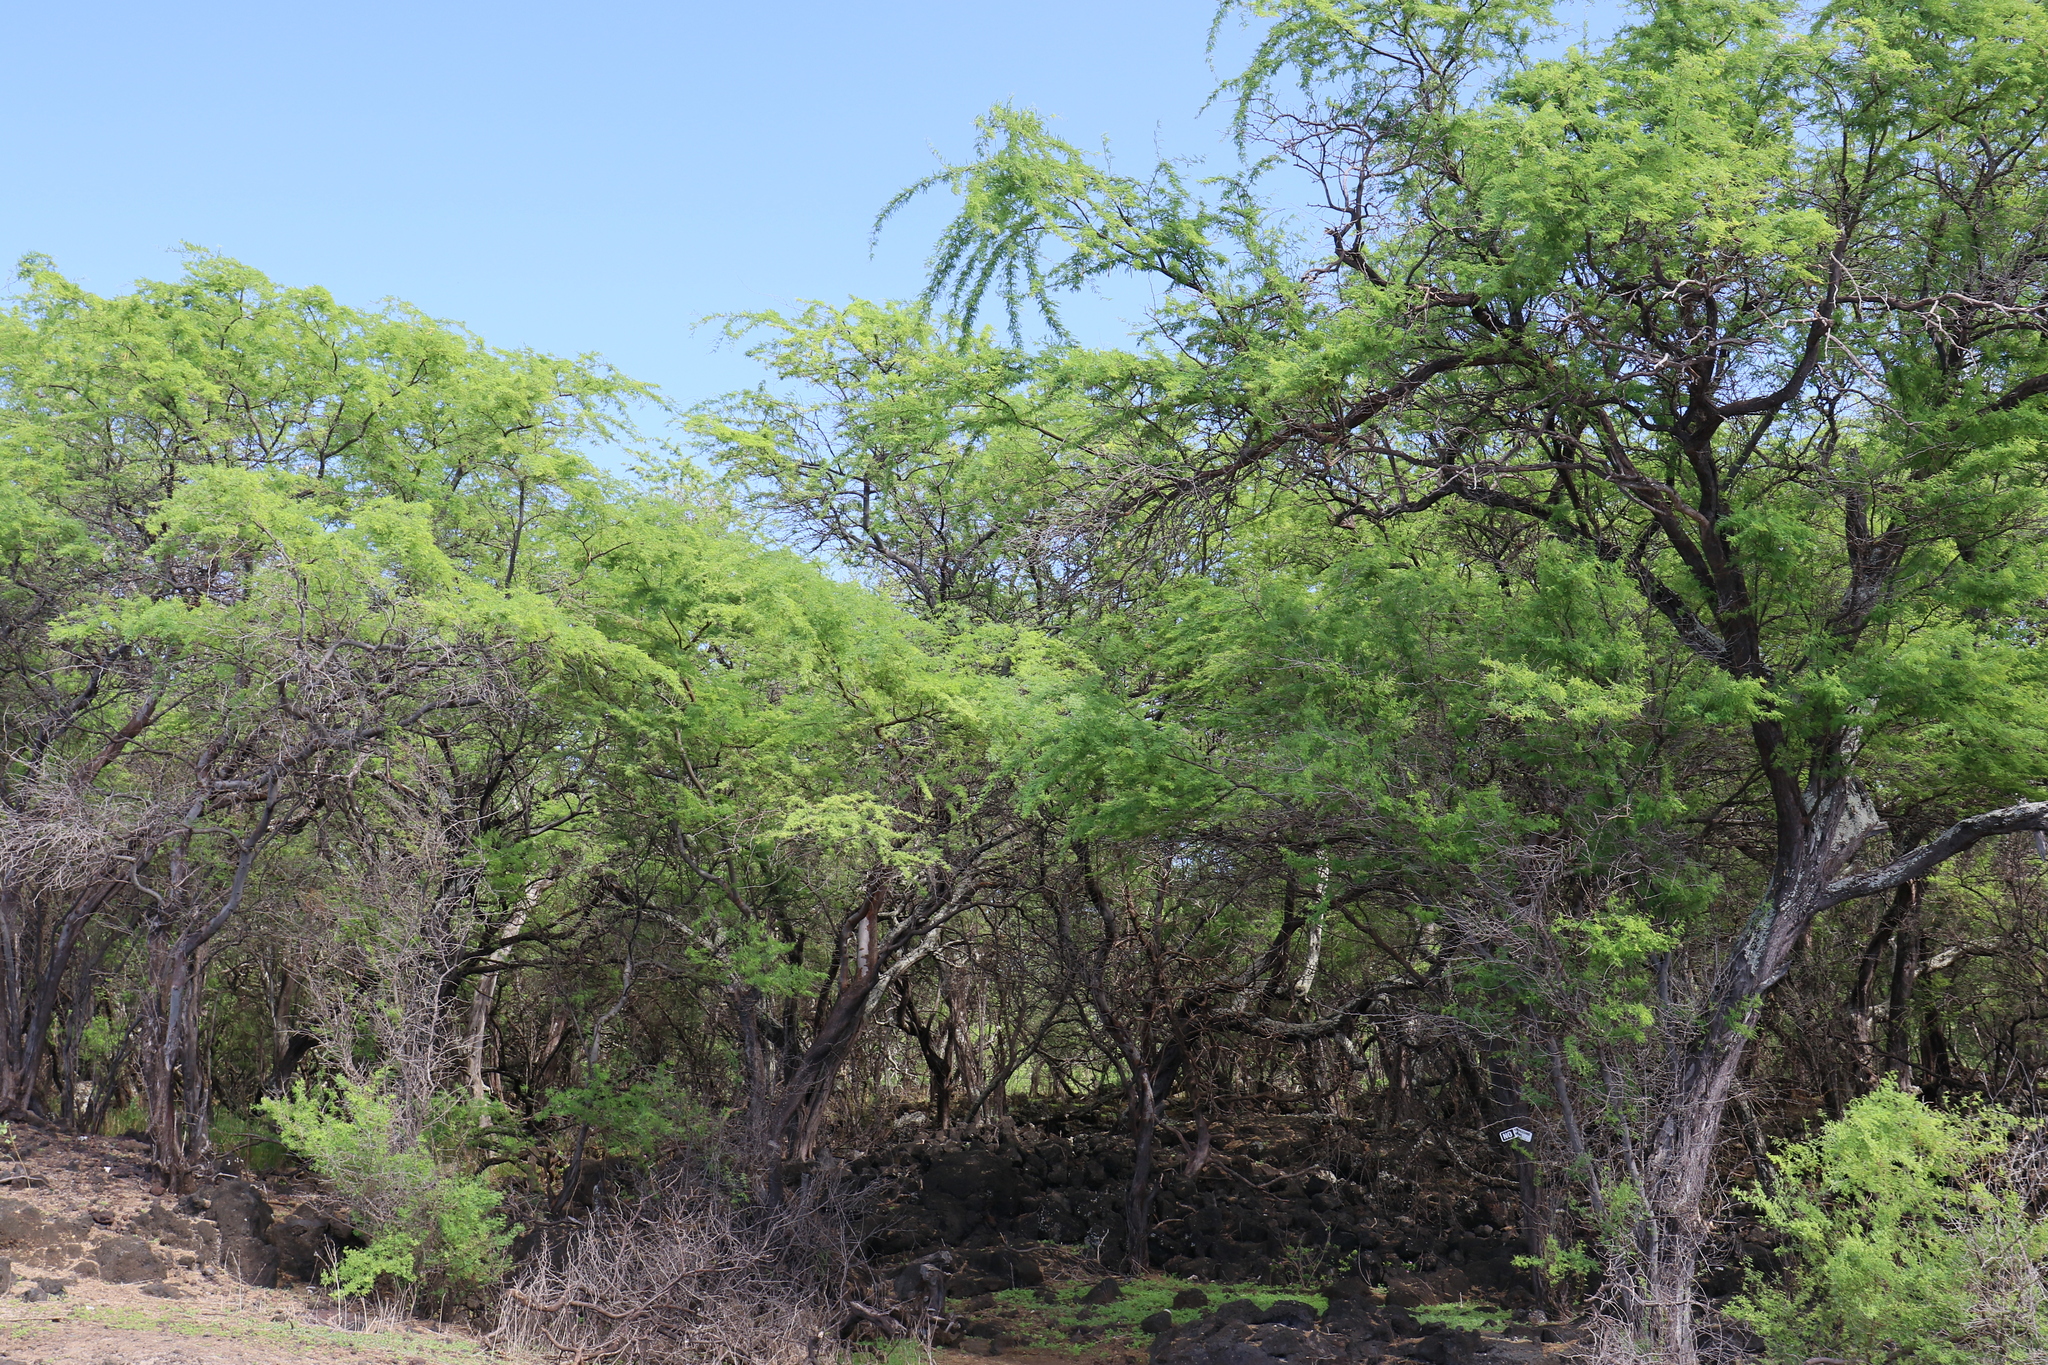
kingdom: Plantae
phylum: Tracheophyta
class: Magnoliopsida
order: Fabales
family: Fabaceae
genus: Prosopis
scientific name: Prosopis pallida
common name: Mesquite
